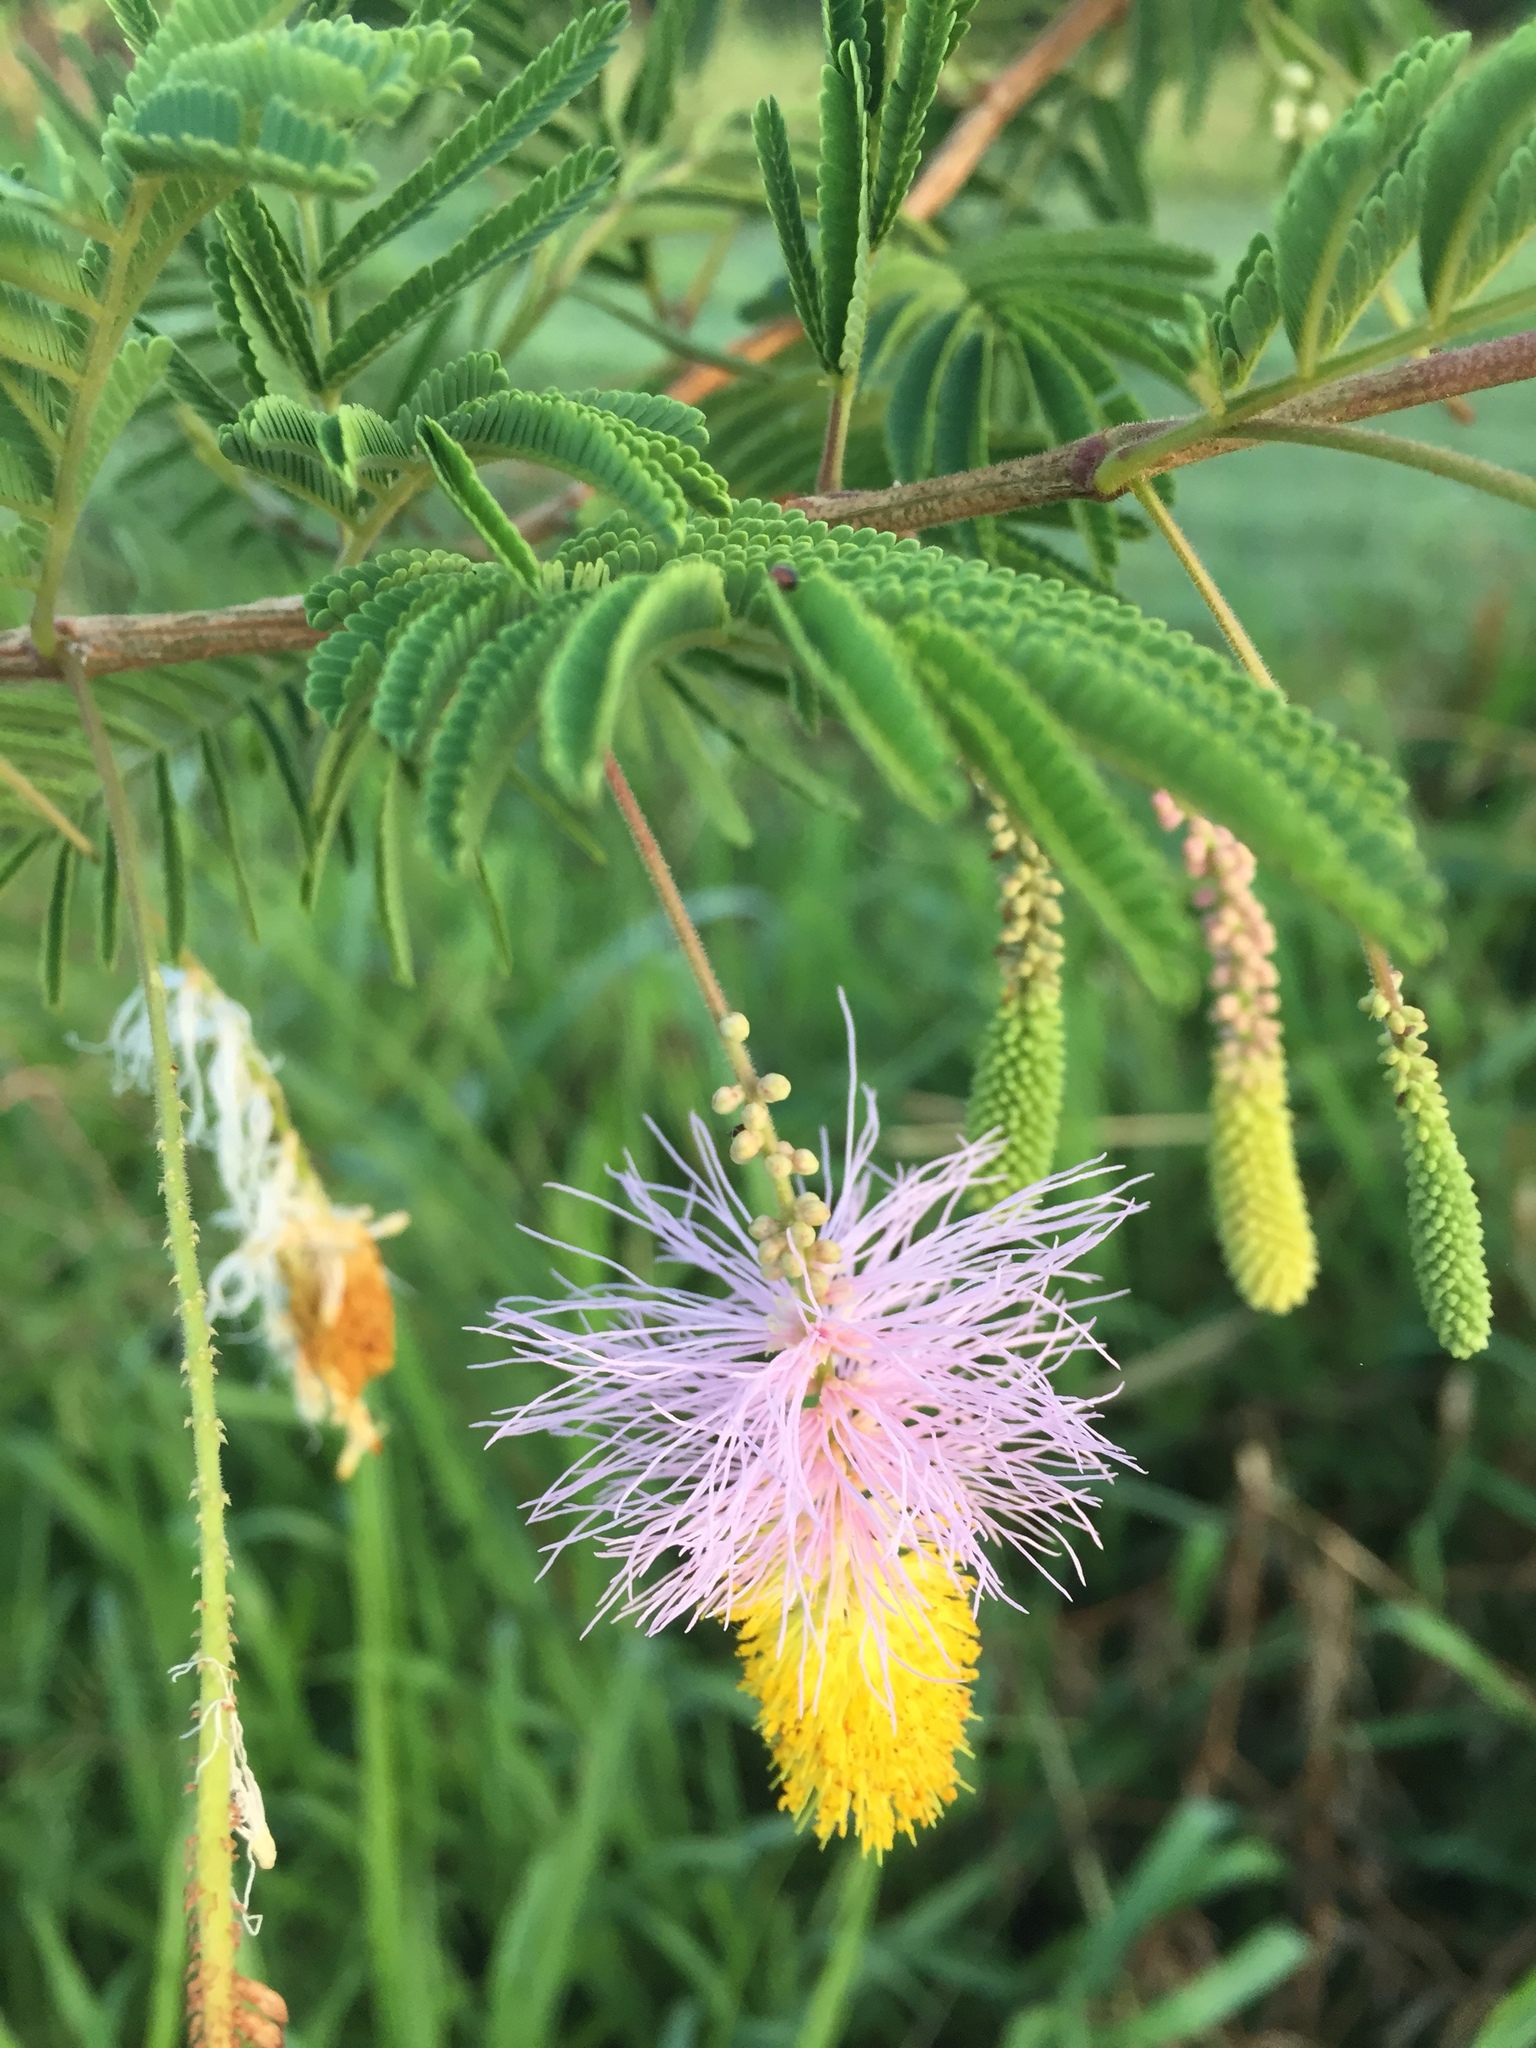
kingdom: Plantae
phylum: Tracheophyta
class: Magnoliopsida
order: Fabales
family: Fabaceae
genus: Dichrostachys
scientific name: Dichrostachys cinerea
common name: Sicklebush
